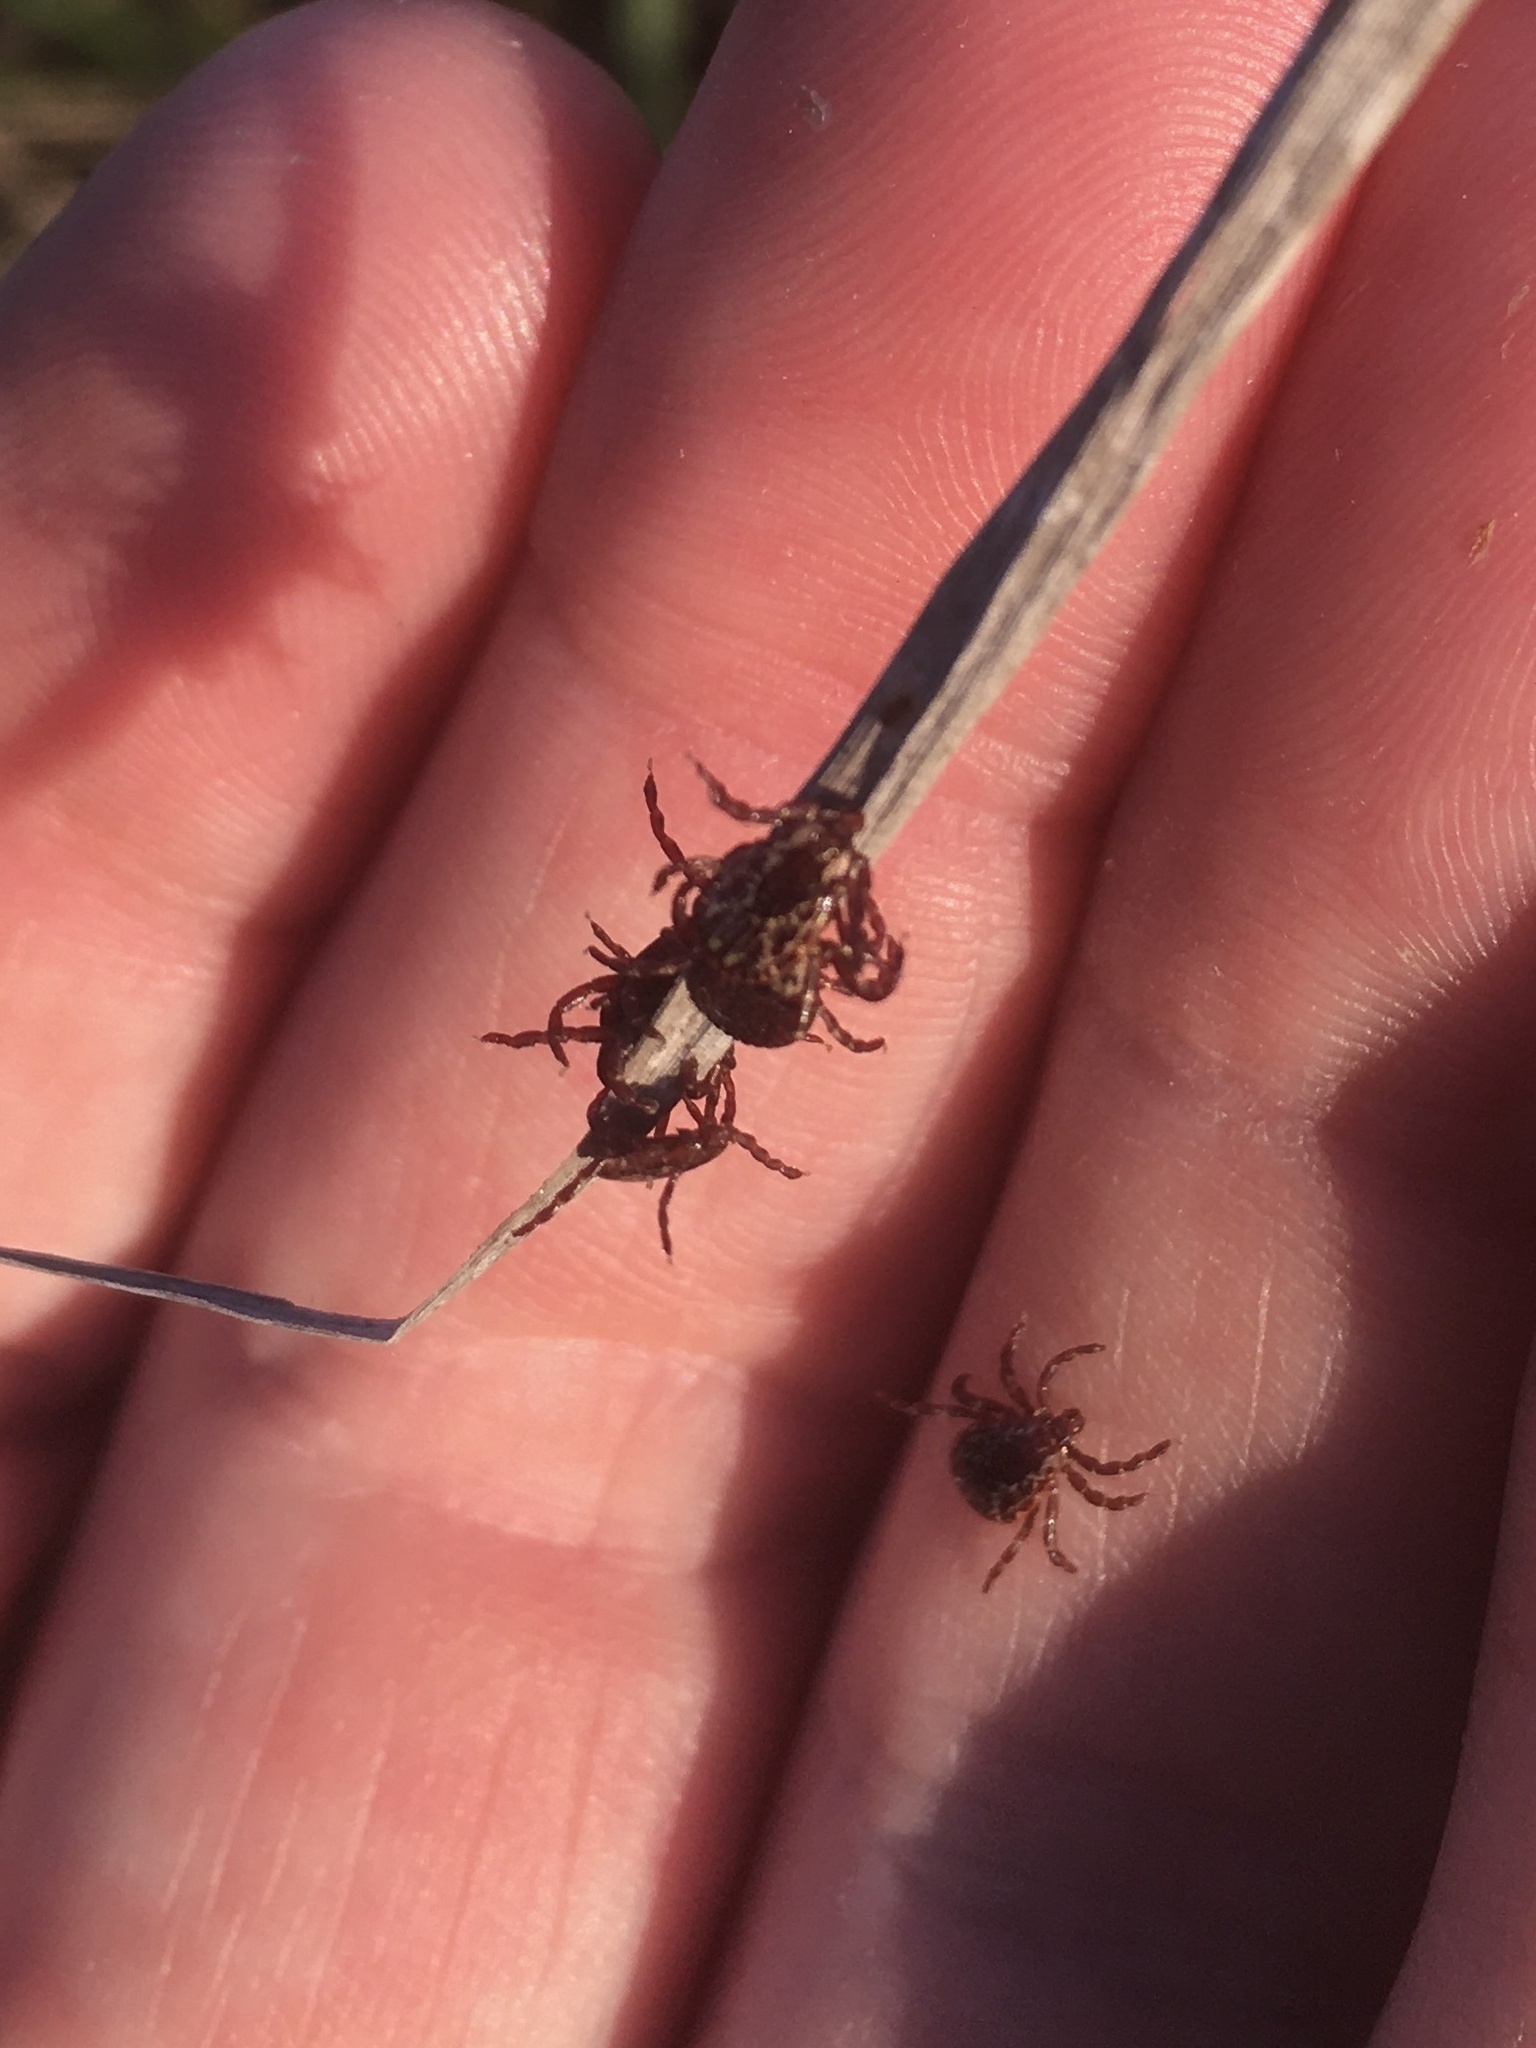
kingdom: Animalia
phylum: Arthropoda
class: Arachnida
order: Ixodida
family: Ixodidae
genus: Dermacentor
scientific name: Dermacentor variabilis
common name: American dog tick
